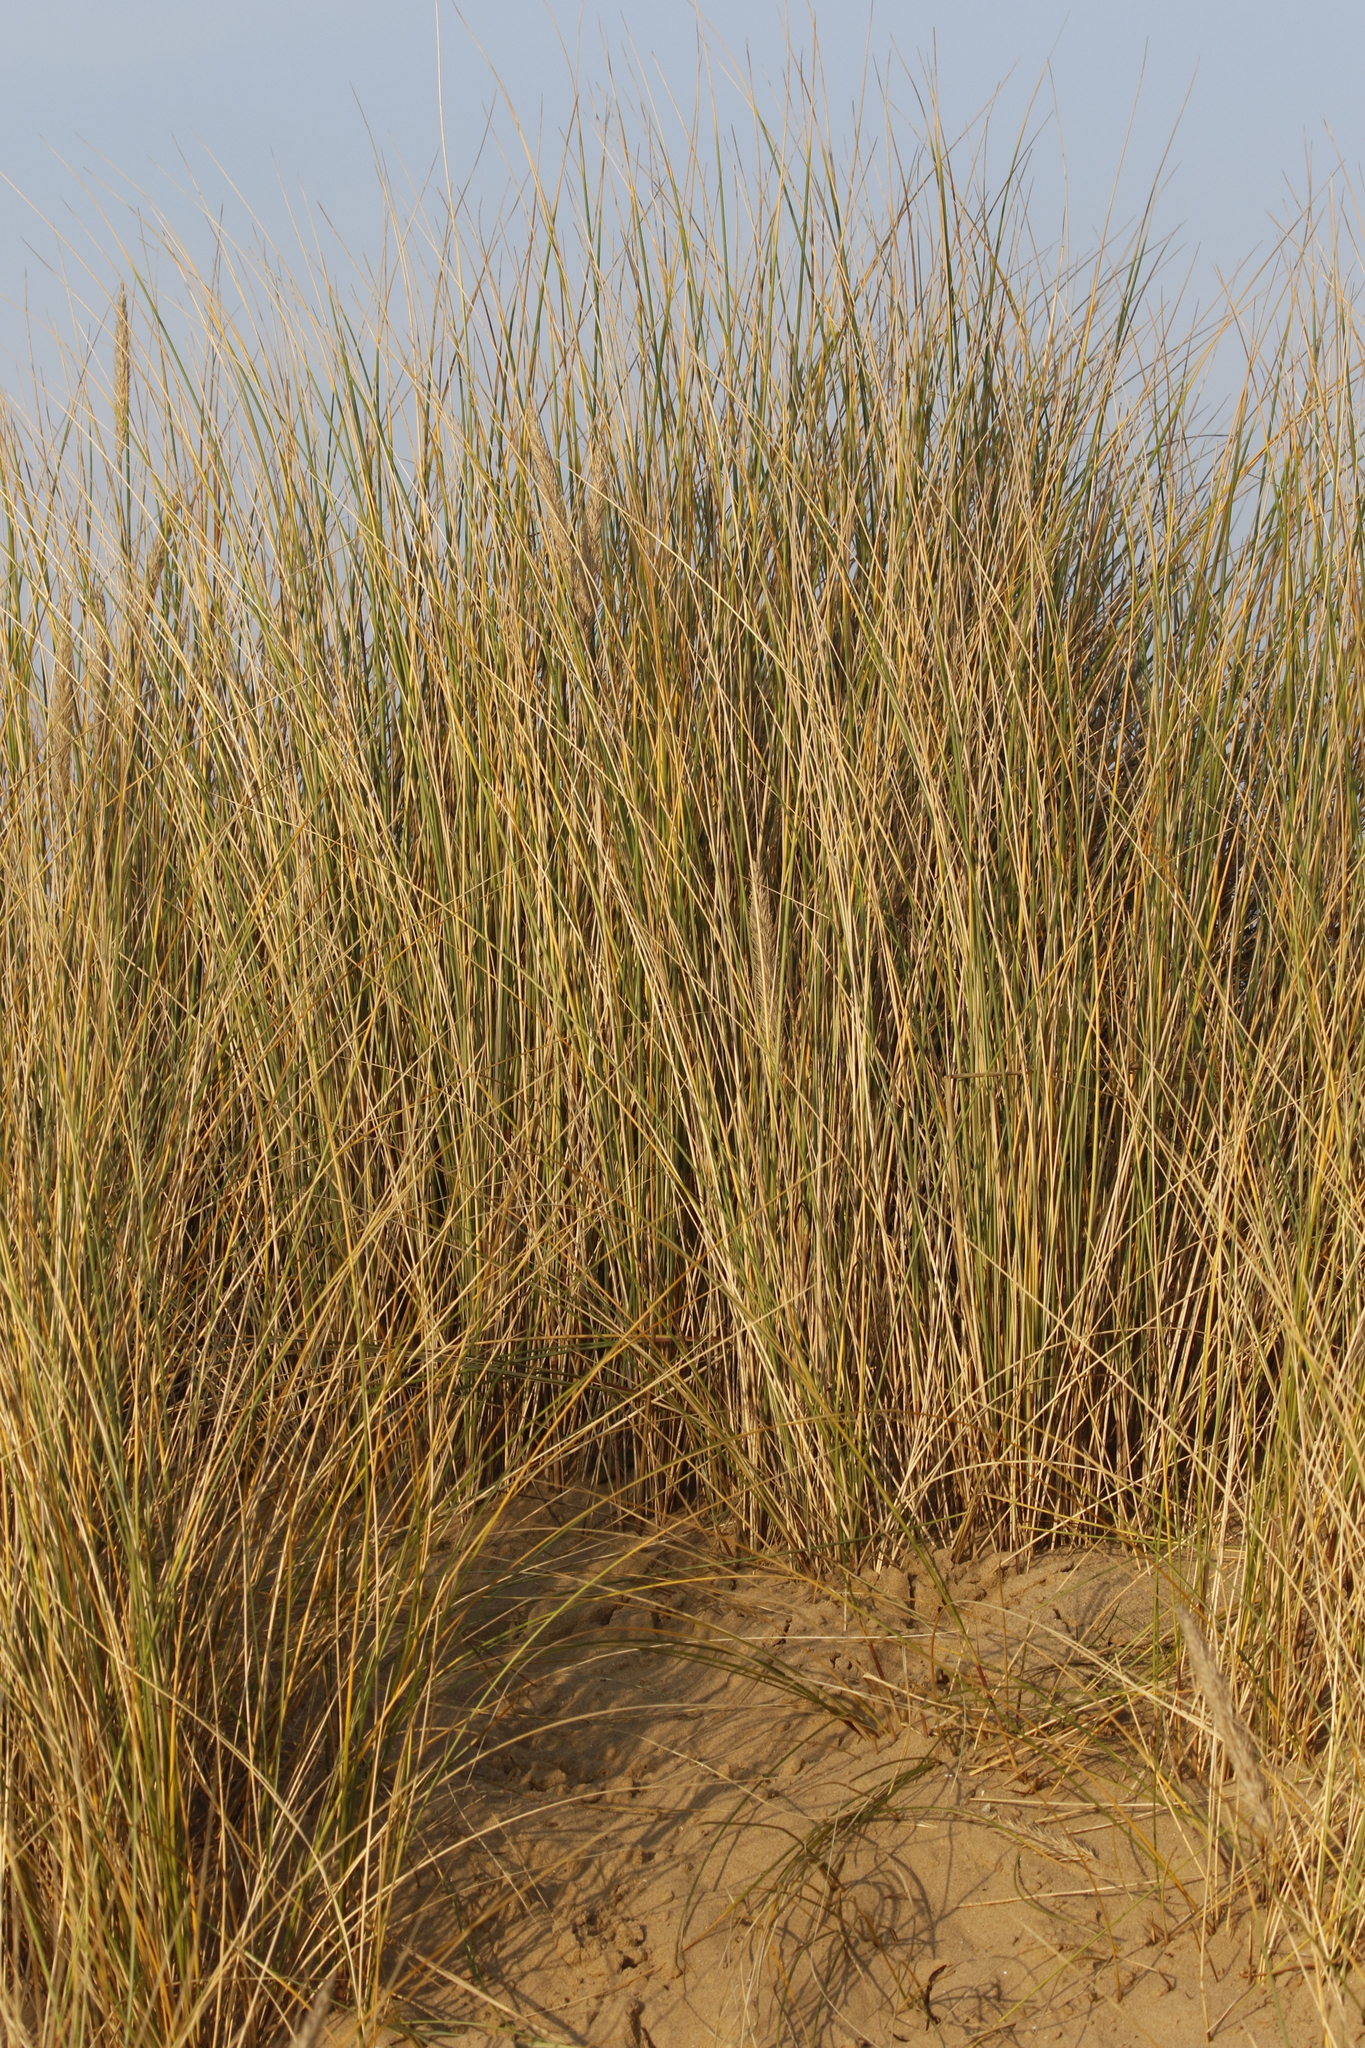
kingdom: Plantae
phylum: Tracheophyta
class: Liliopsida
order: Poales
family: Poaceae
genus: Calamagrostis
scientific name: Calamagrostis arenaria
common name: European beachgrass
